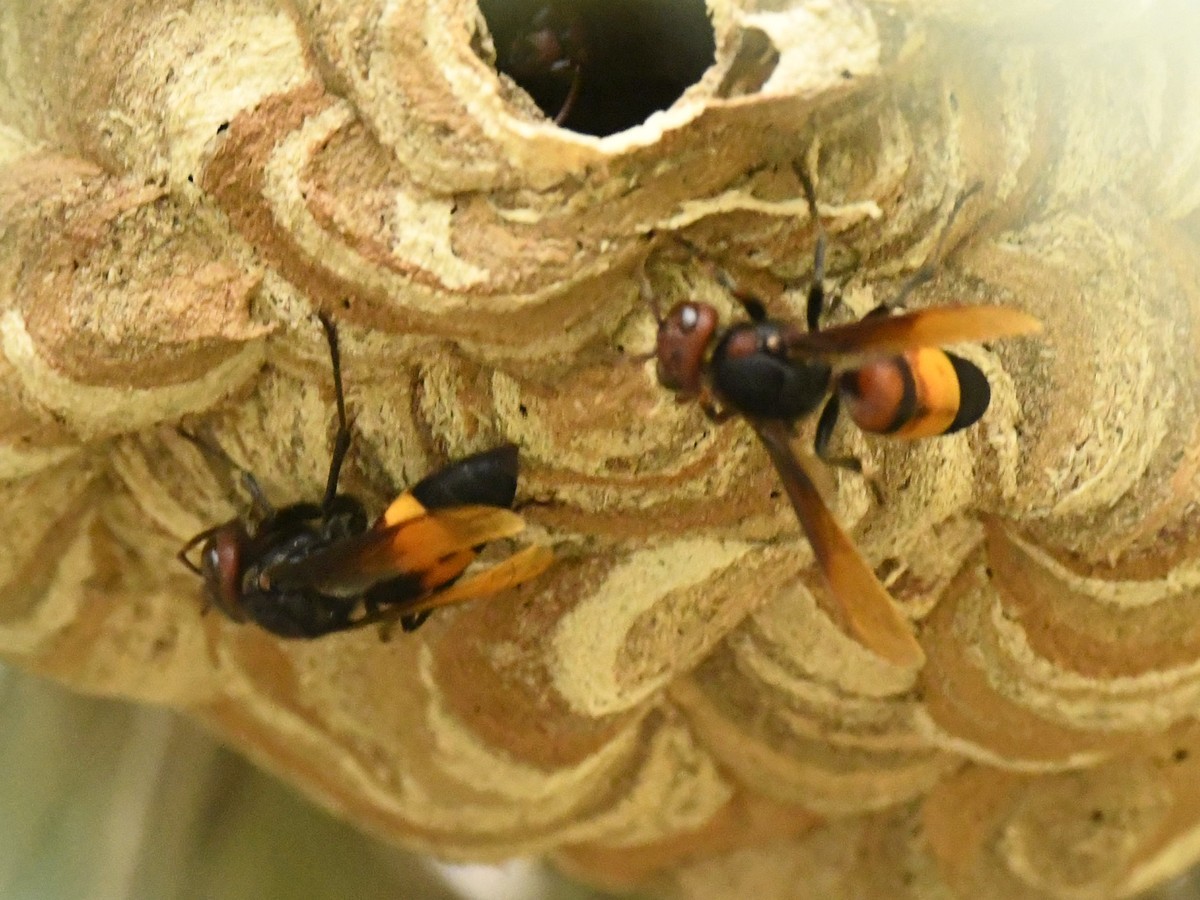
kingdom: Animalia
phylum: Arthropoda
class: Insecta
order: Hymenoptera
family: Vespidae
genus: Vespa
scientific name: Vespa affinis
